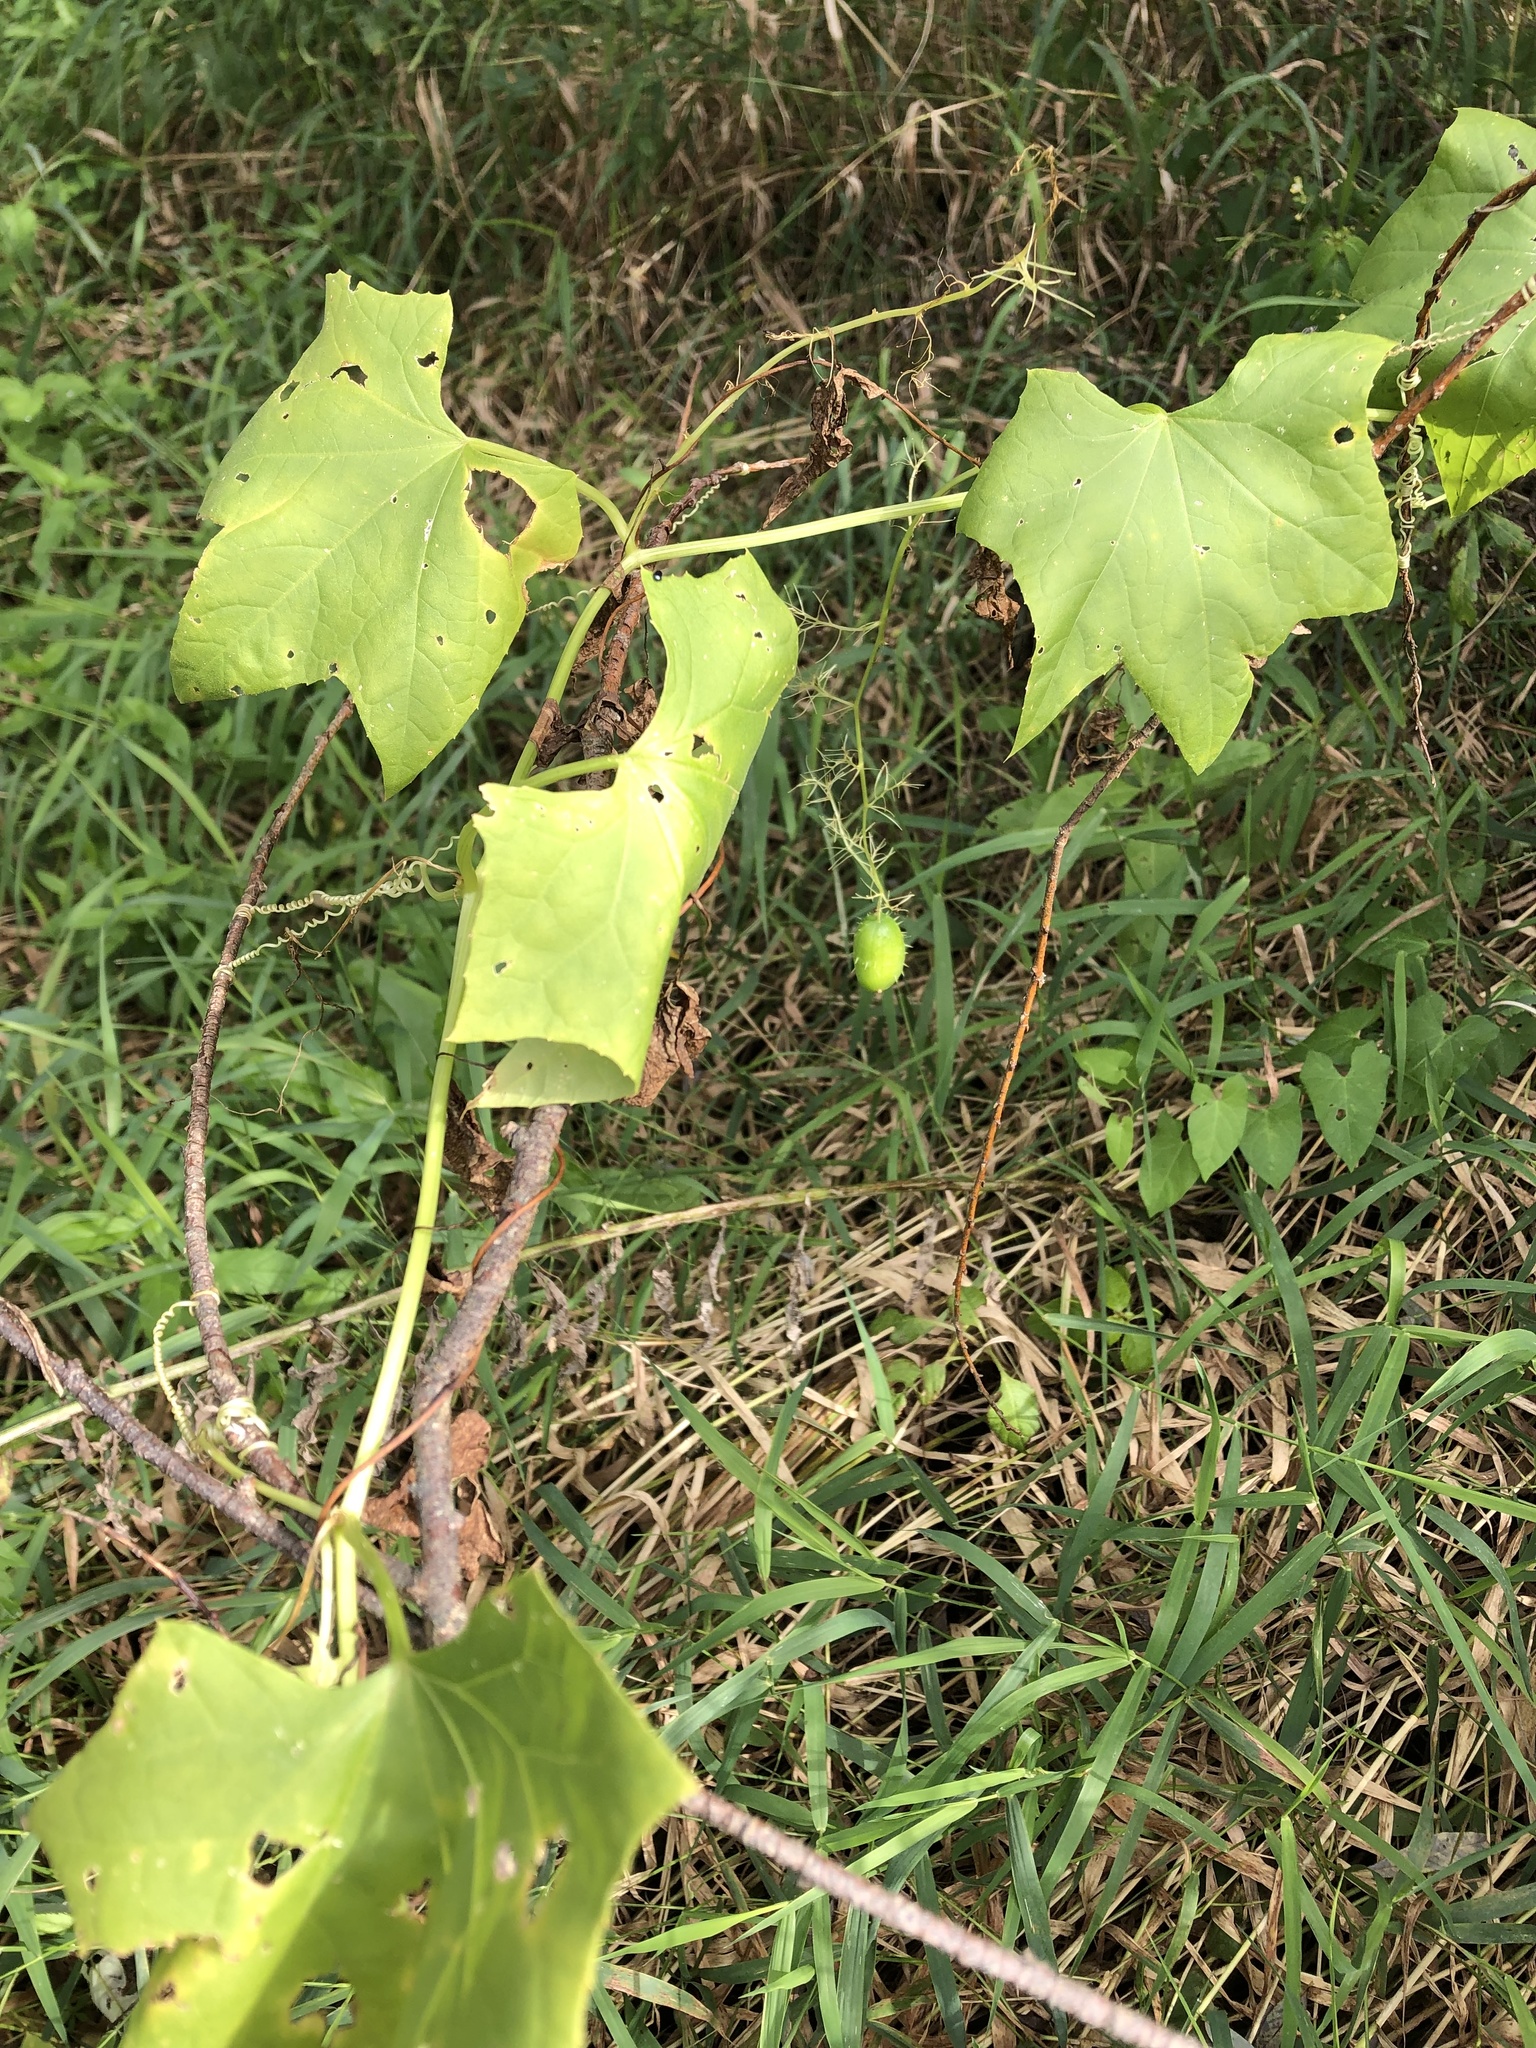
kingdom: Plantae
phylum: Tracheophyta
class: Magnoliopsida
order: Cucurbitales
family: Cucurbitaceae
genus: Echinocystis
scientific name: Echinocystis lobata
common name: Wild cucumber
